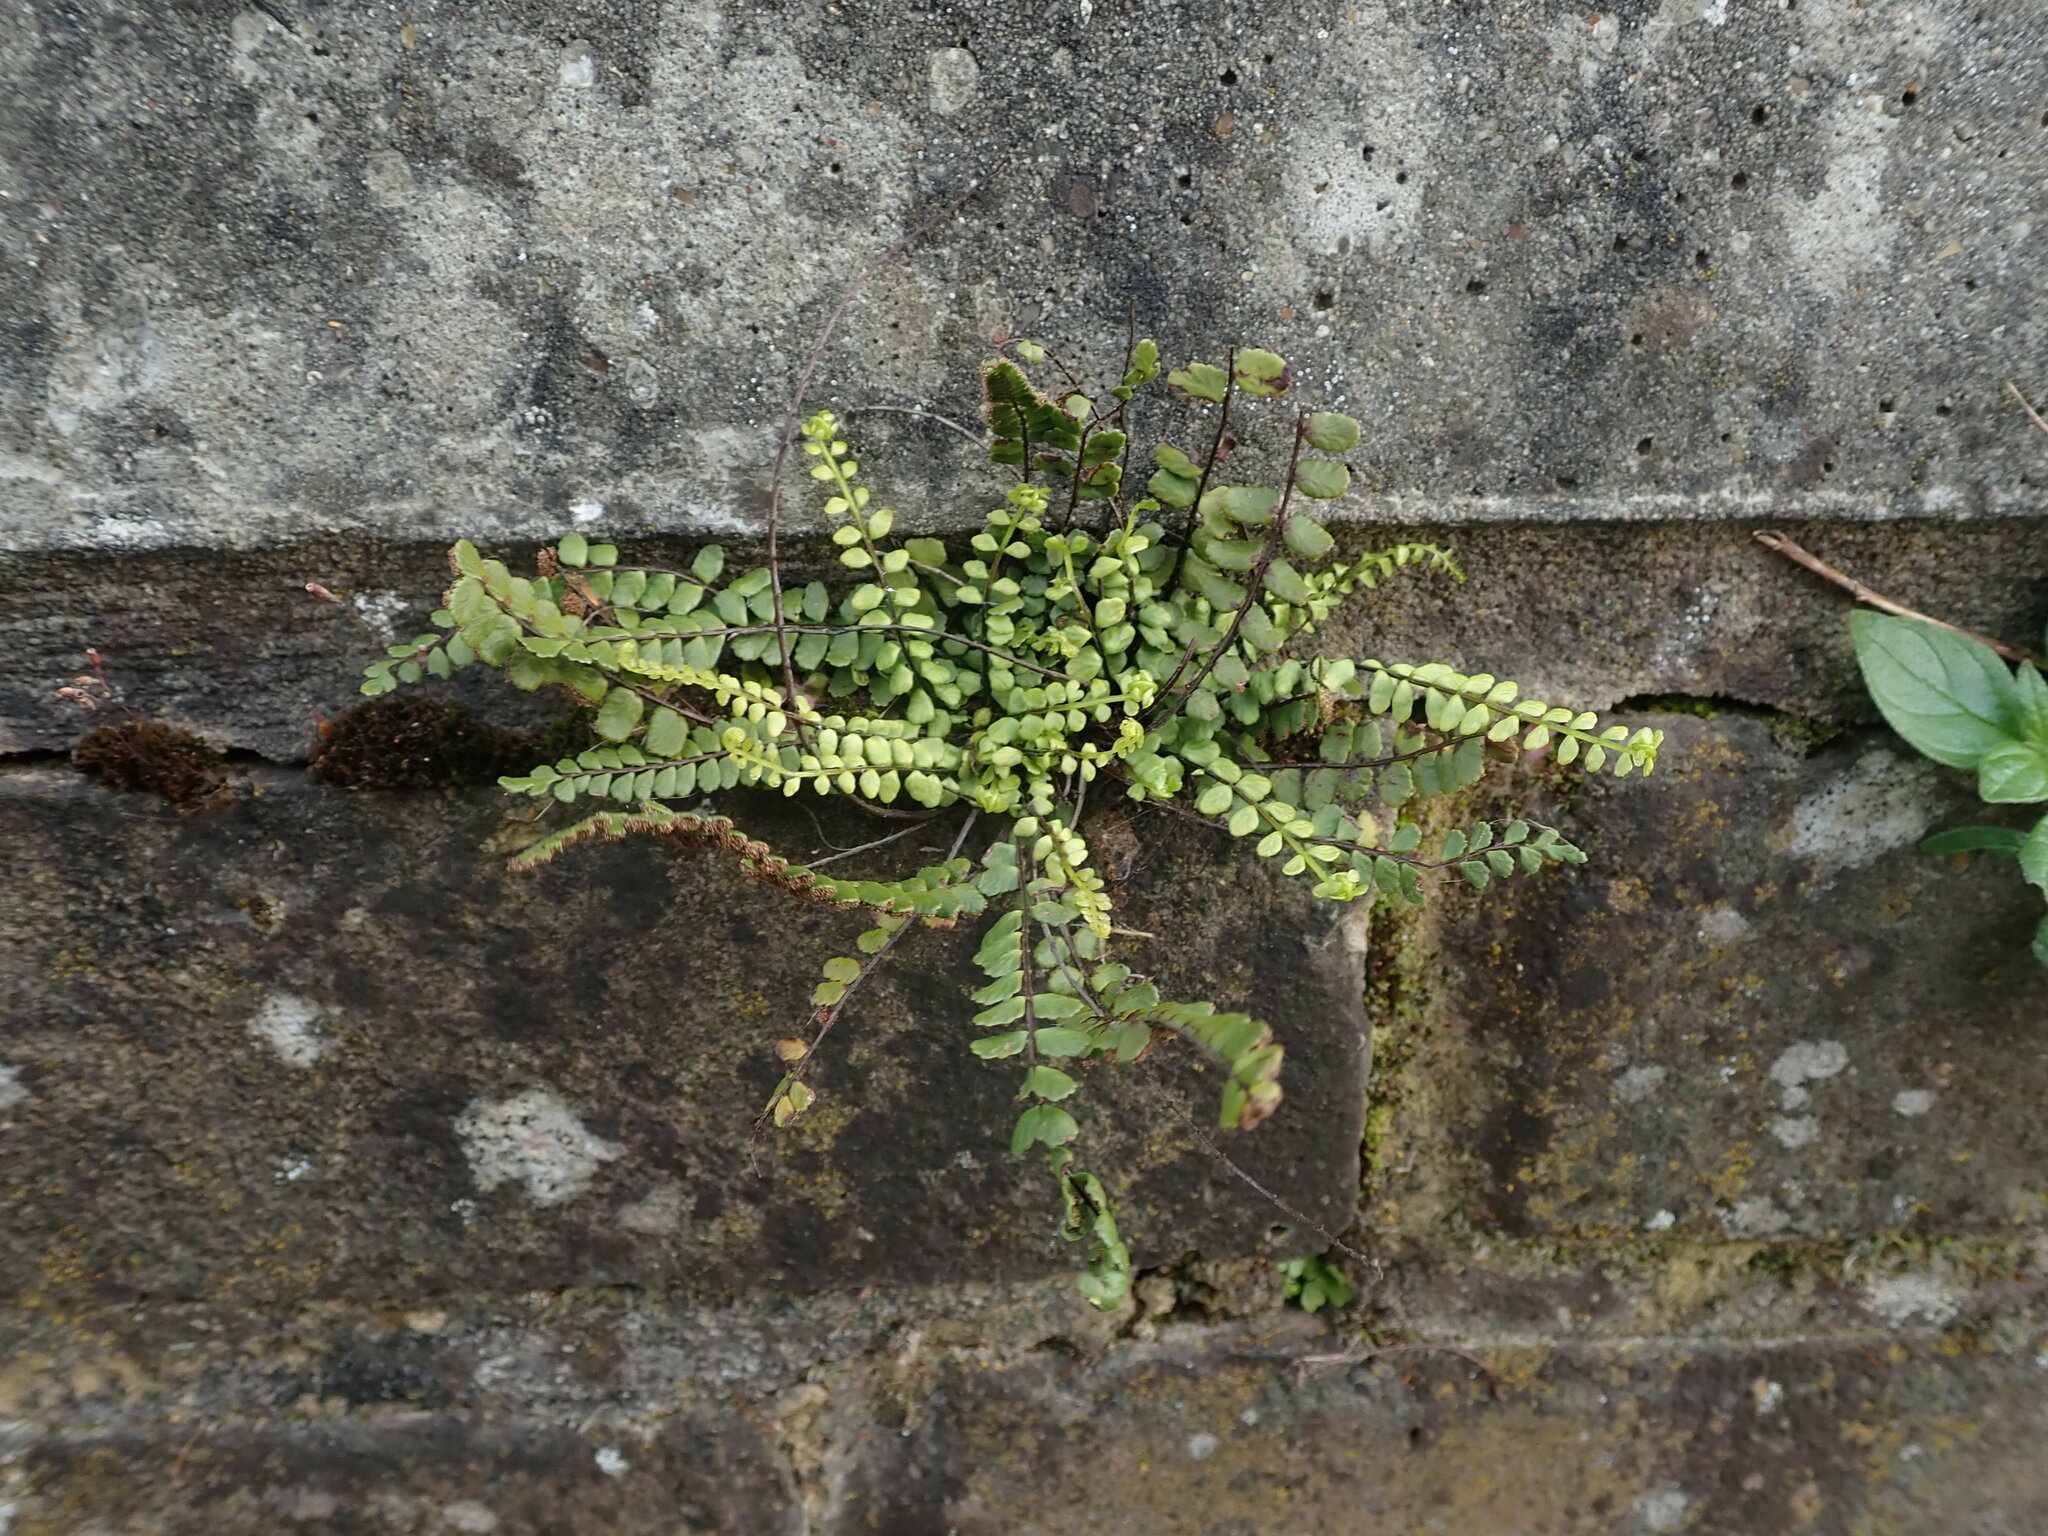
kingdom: Plantae
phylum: Tracheophyta
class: Polypodiopsida
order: Polypodiales
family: Aspleniaceae
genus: Asplenium
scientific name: Asplenium trichomanes
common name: Maidenhair spleenwort
